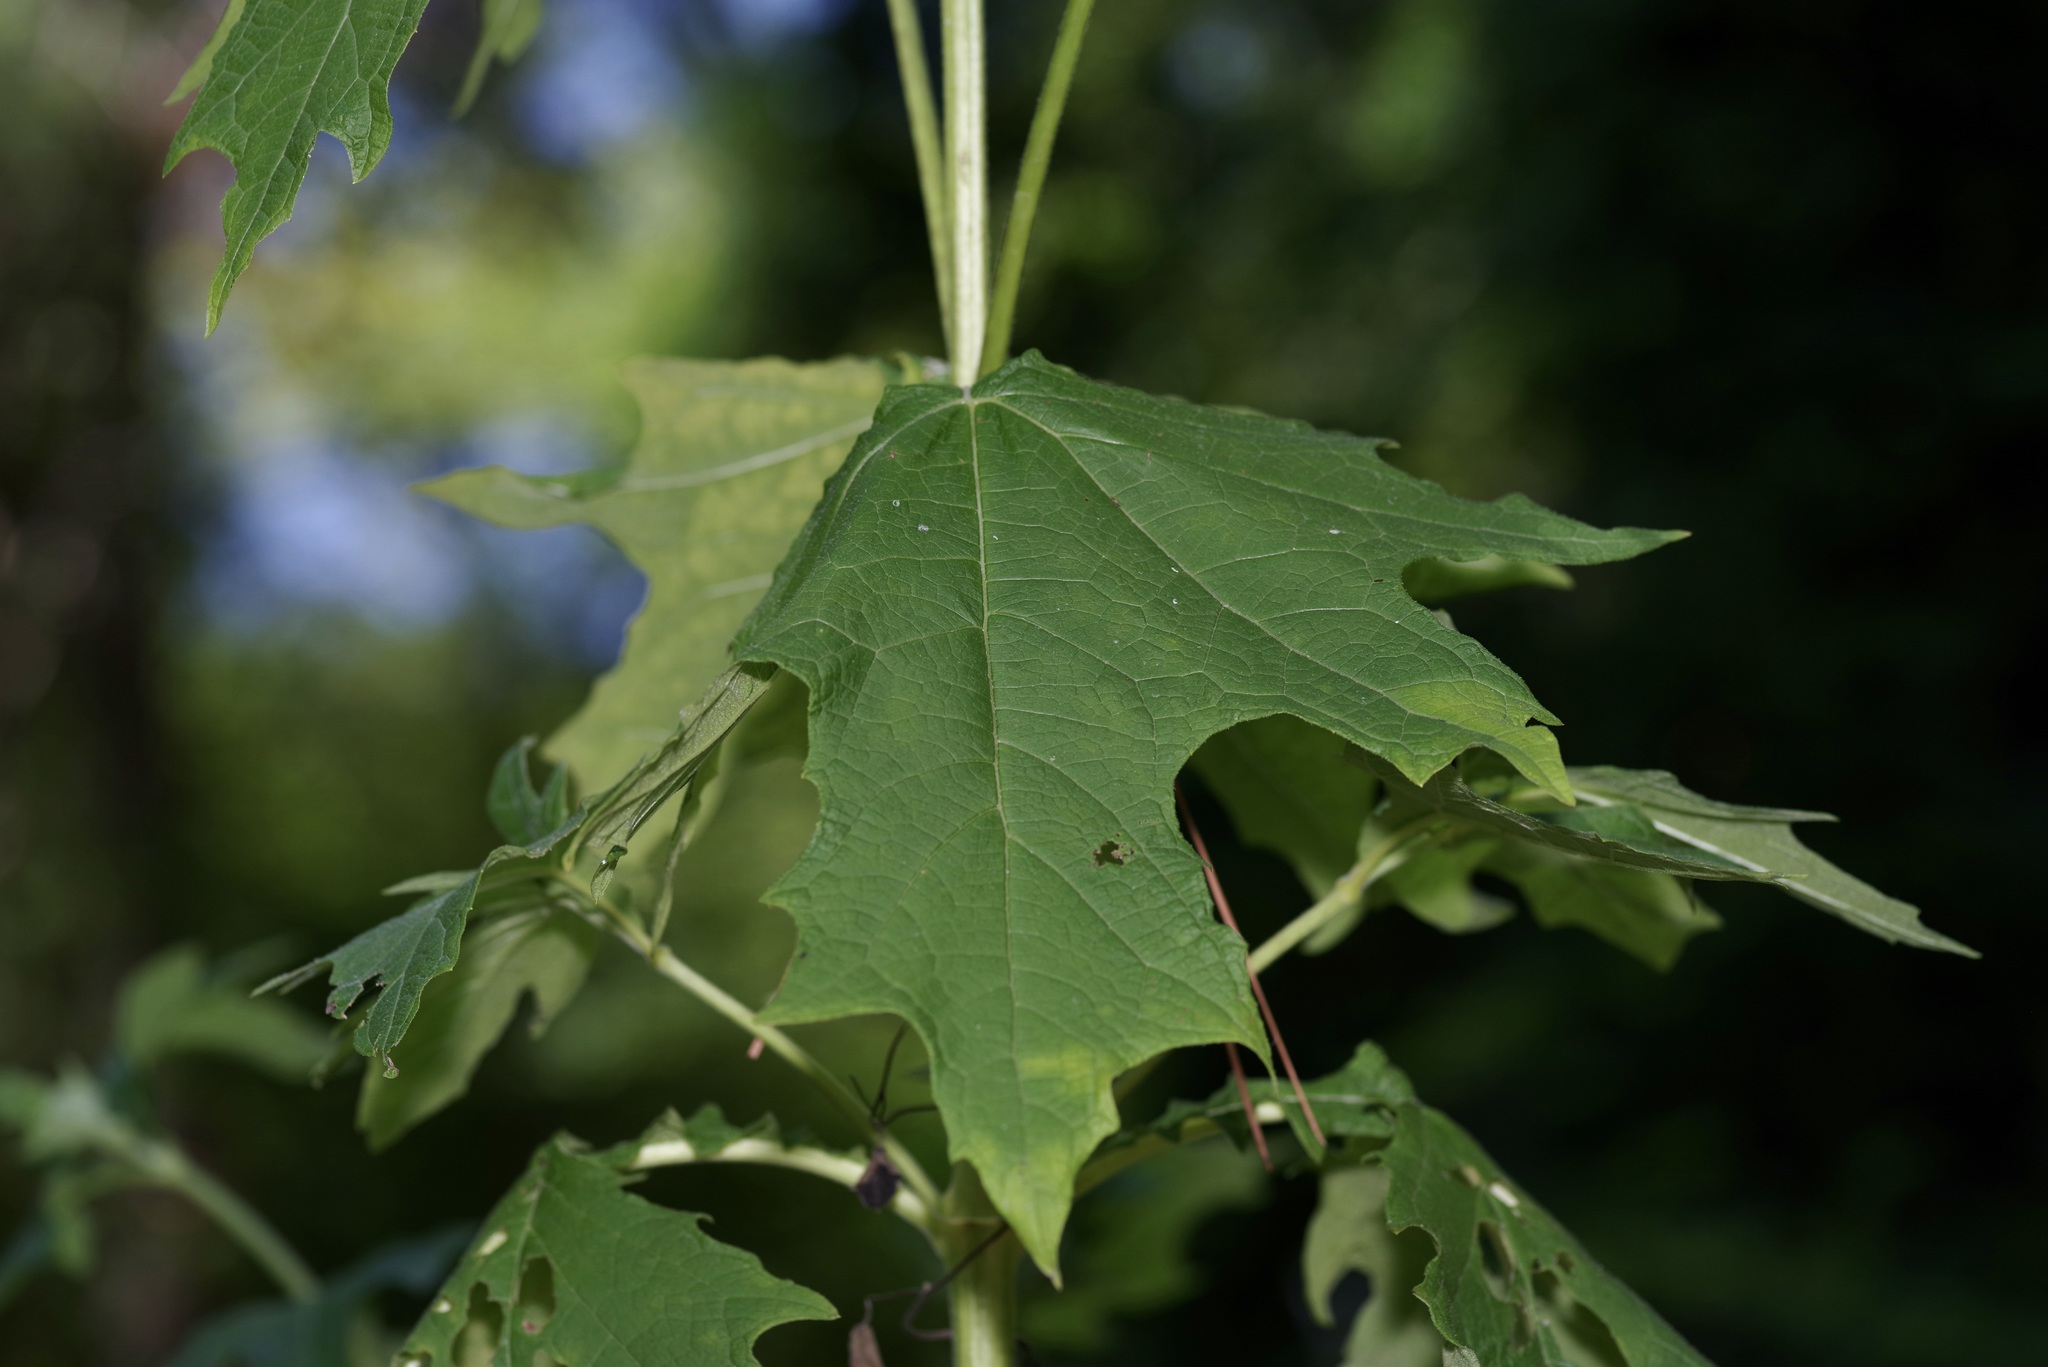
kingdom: Plantae
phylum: Tracheophyta
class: Magnoliopsida
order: Asterales
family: Asteraceae
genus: Smallanthus
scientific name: Smallanthus uvedalia
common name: Bear's-foot
